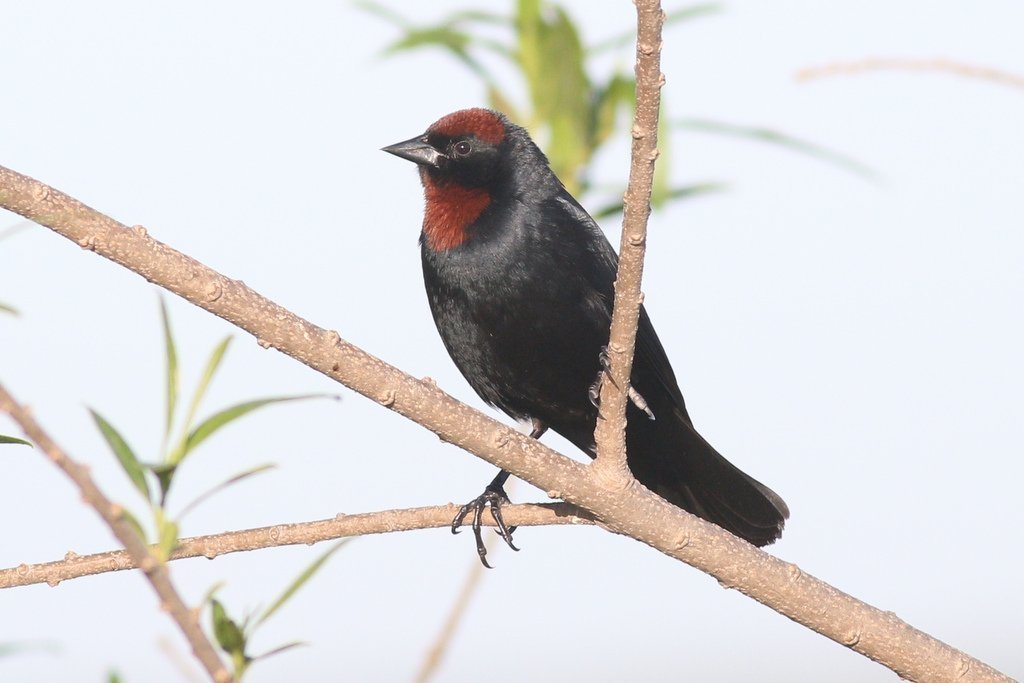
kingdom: Animalia
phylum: Chordata
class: Aves
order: Passeriformes
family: Icteridae
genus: Chrysomus
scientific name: Chrysomus ruficapillus
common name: Chestnut-capped blackbird
